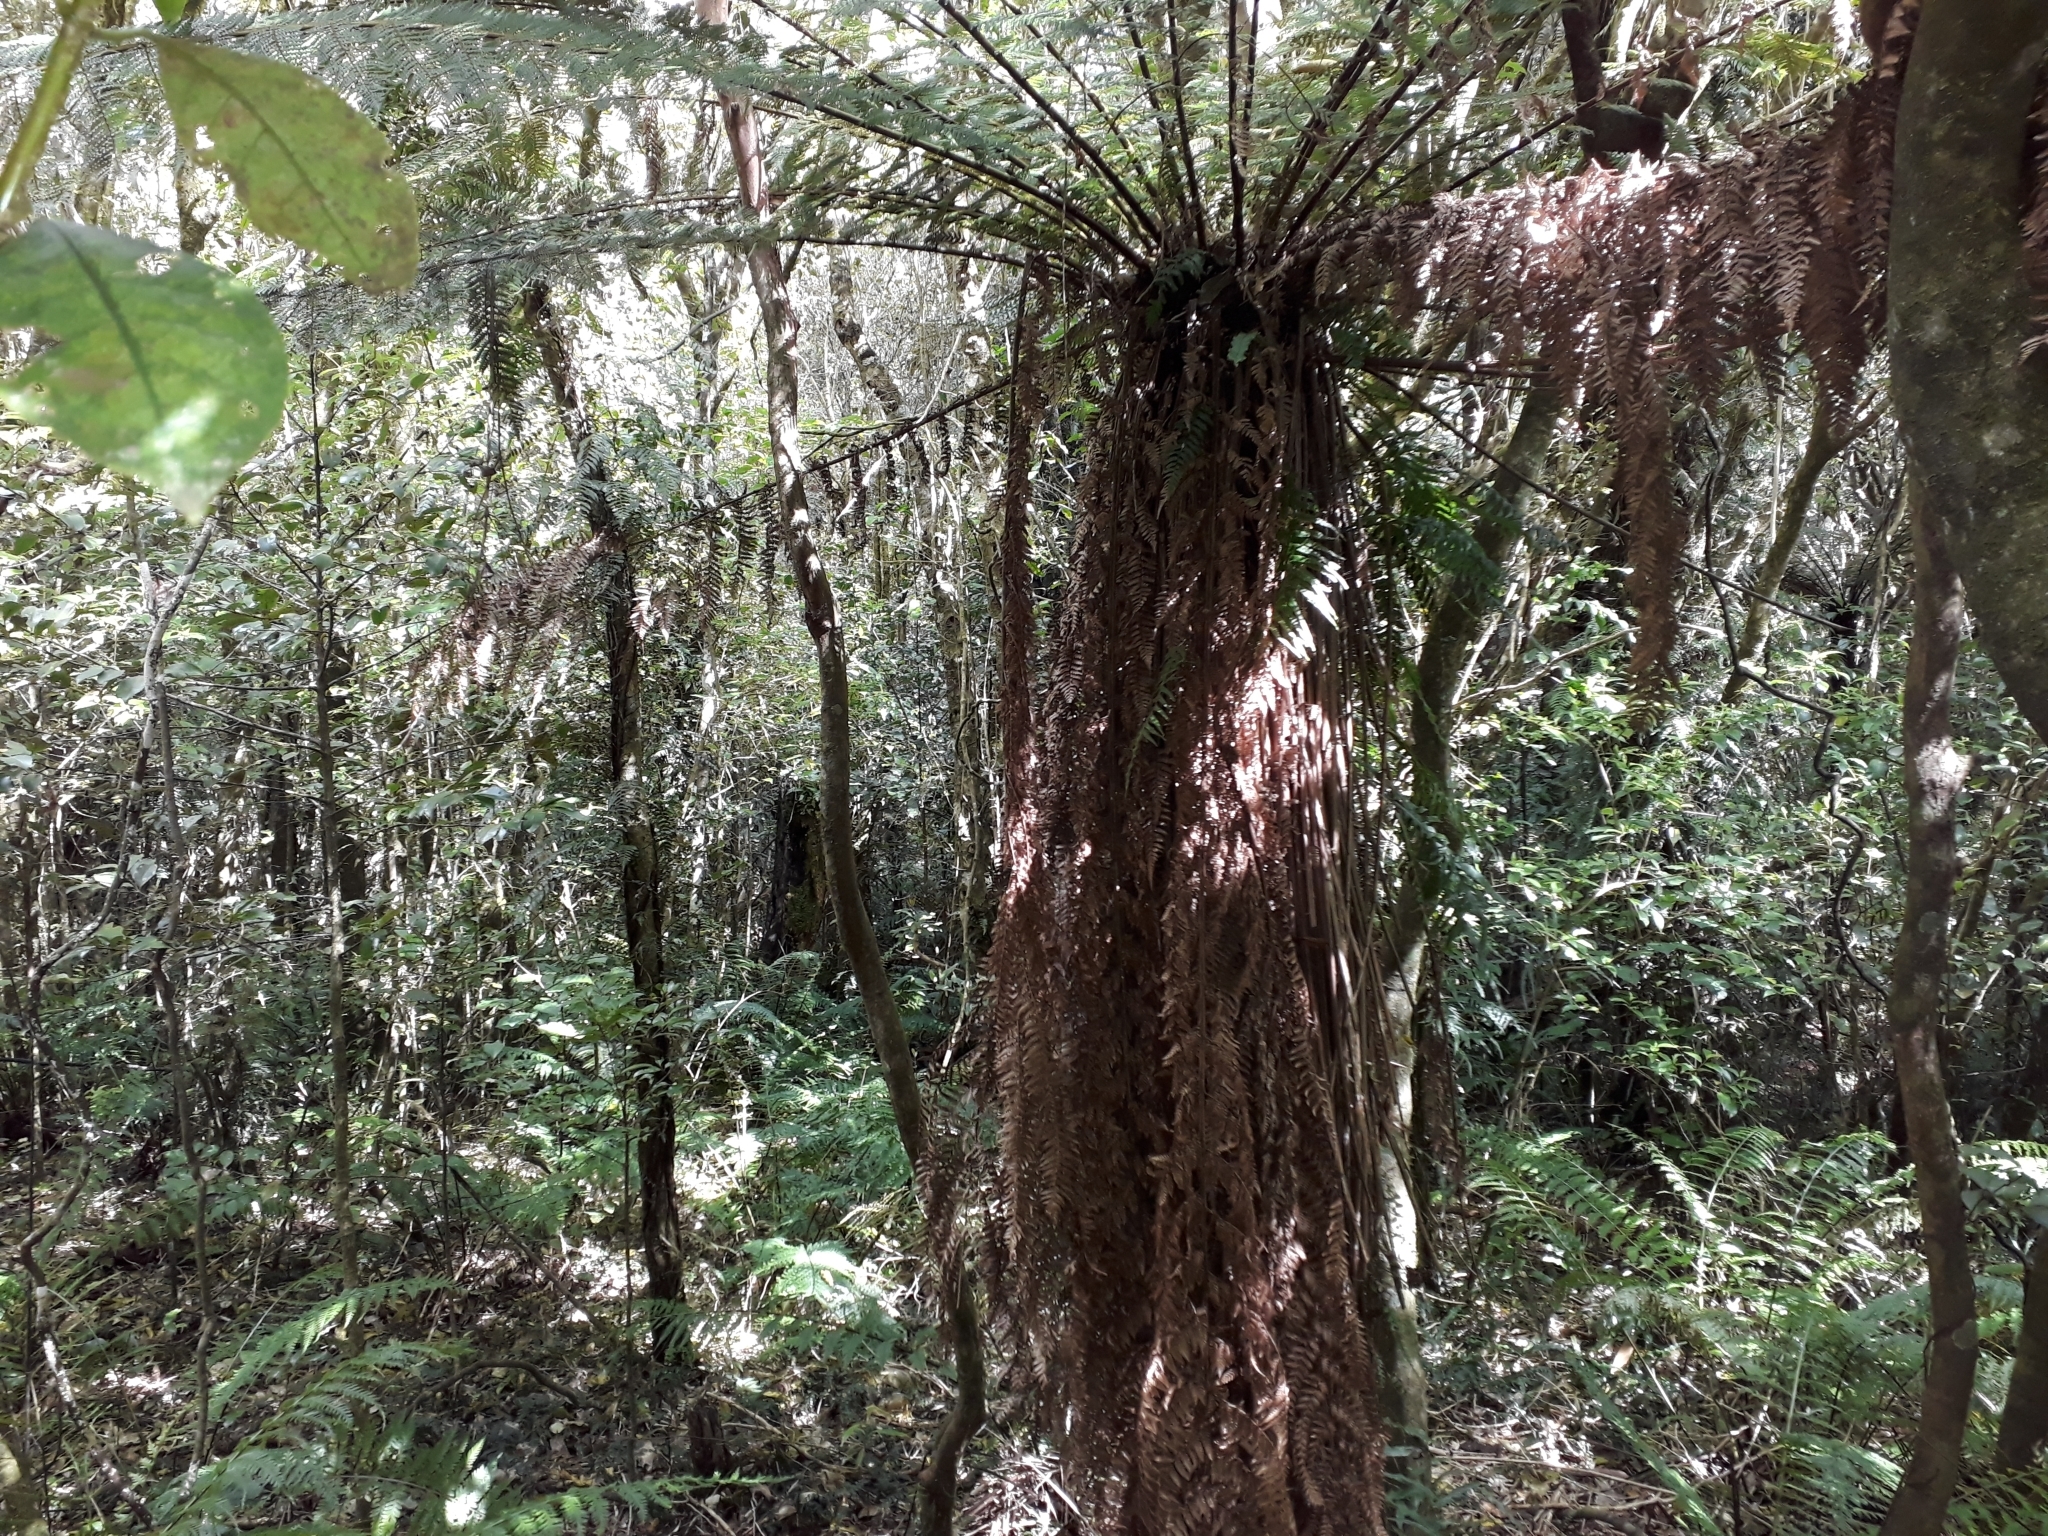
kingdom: Plantae
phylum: Tracheophyta
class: Polypodiopsida
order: Cyatheales
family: Dicksoniaceae
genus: Dicksonia
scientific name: Dicksonia fibrosa
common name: Golden tree fern
